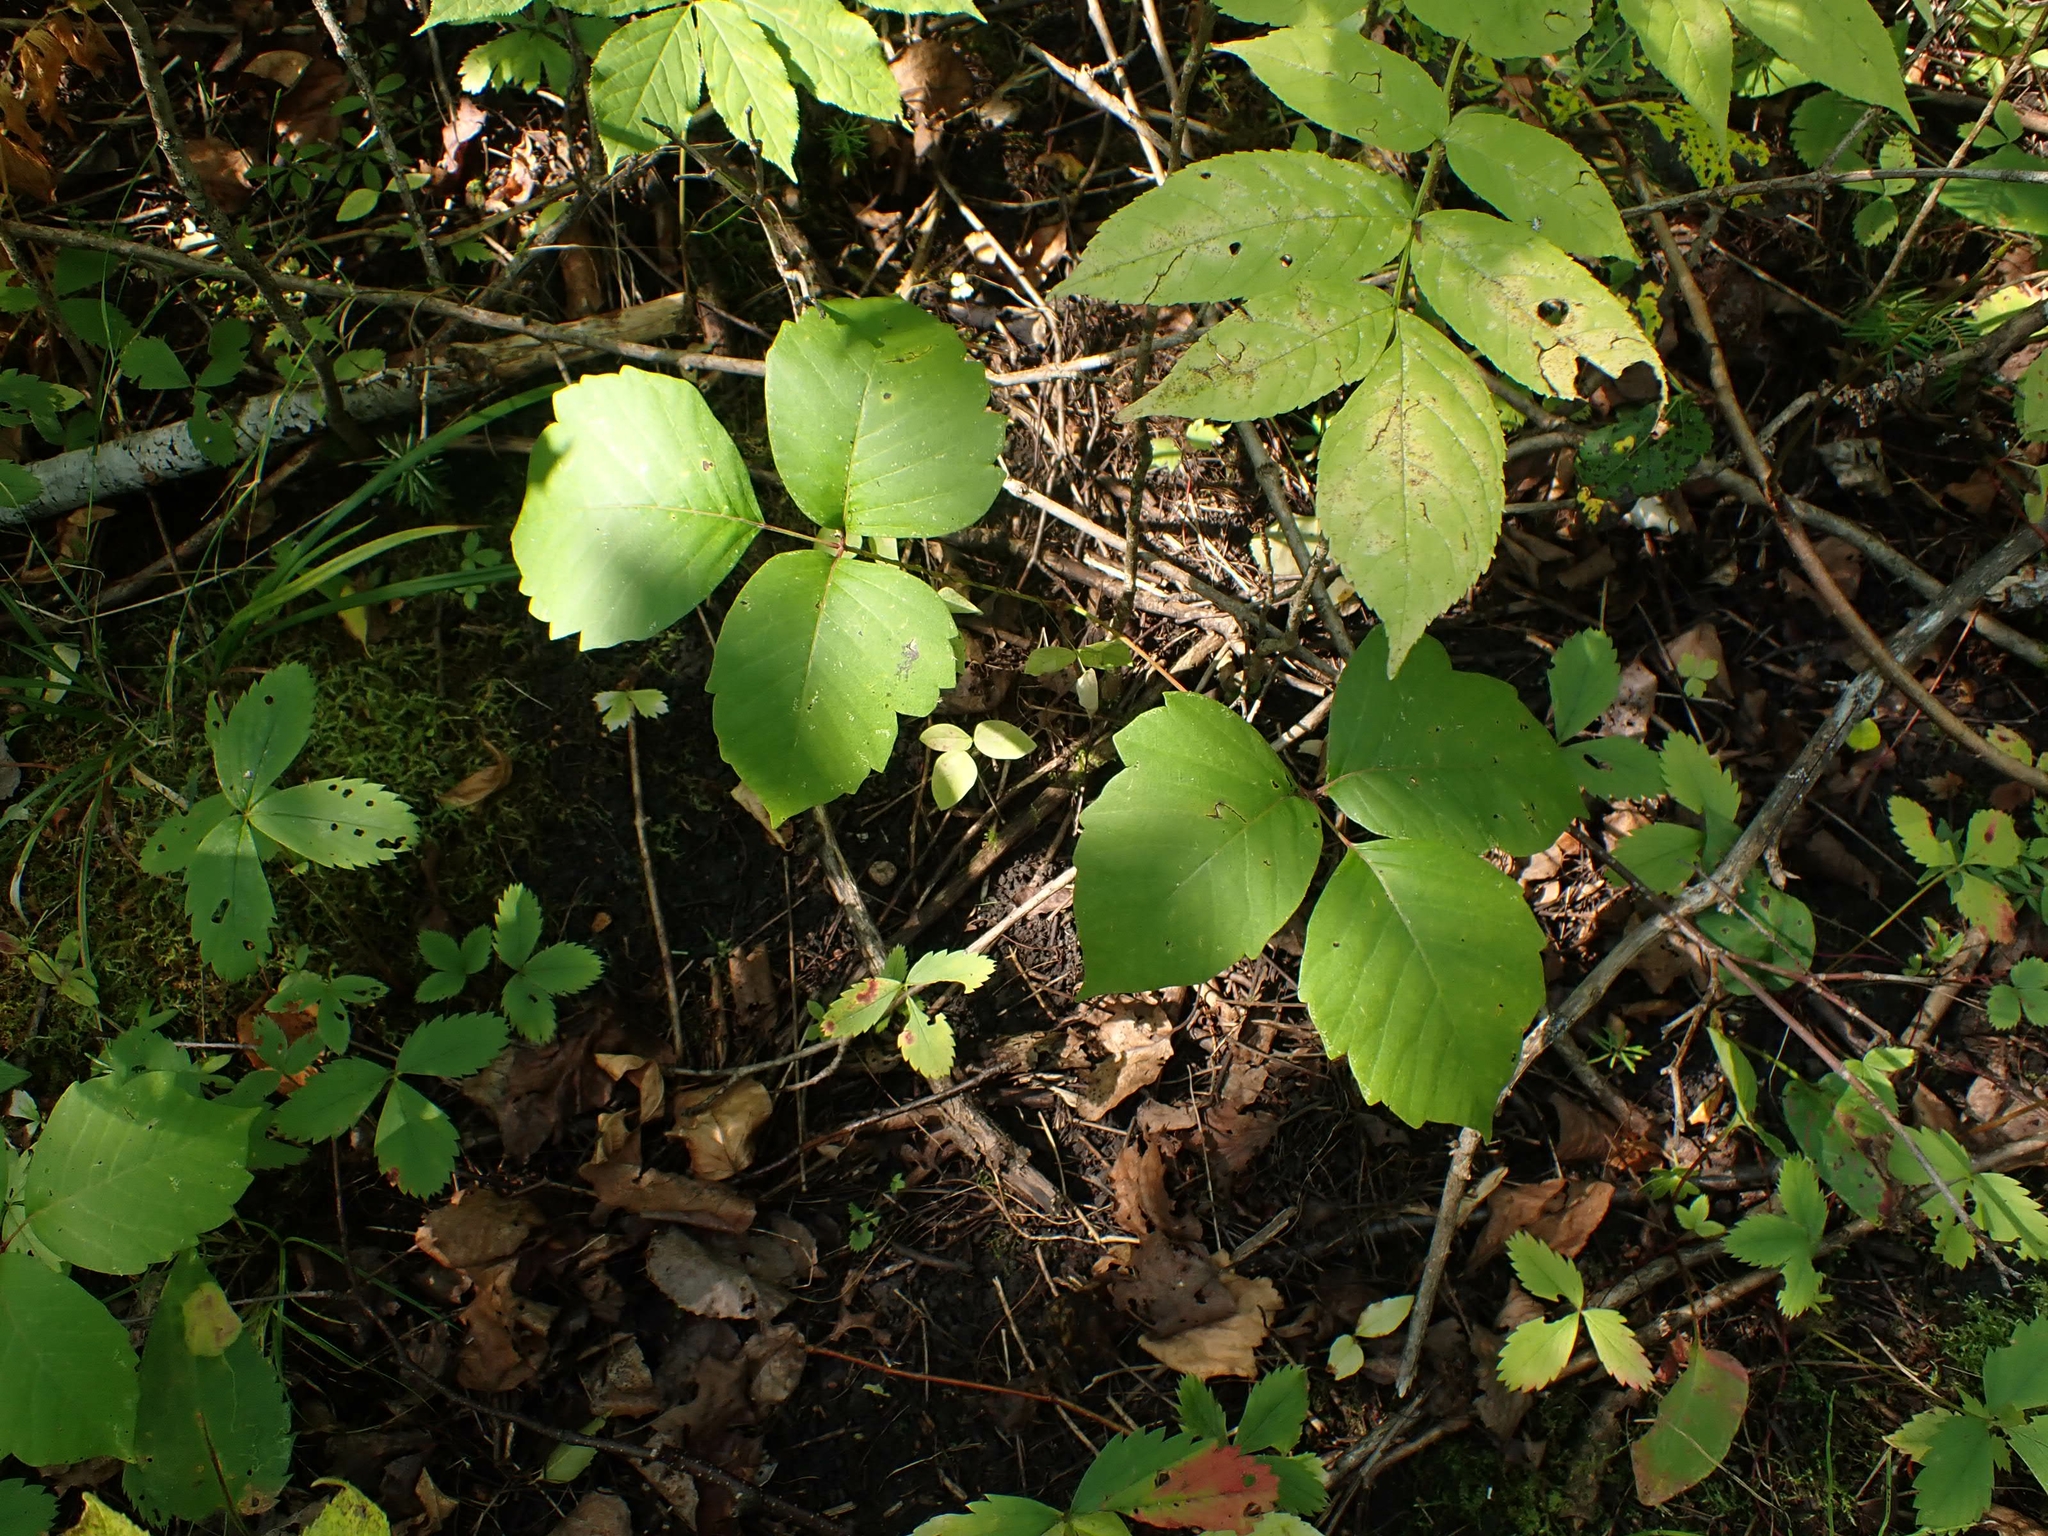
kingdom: Plantae
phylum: Tracheophyta
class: Magnoliopsida
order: Sapindales
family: Anacardiaceae
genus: Toxicodendron
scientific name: Toxicodendron rydbergii
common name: Rydberg's poison-ivy
